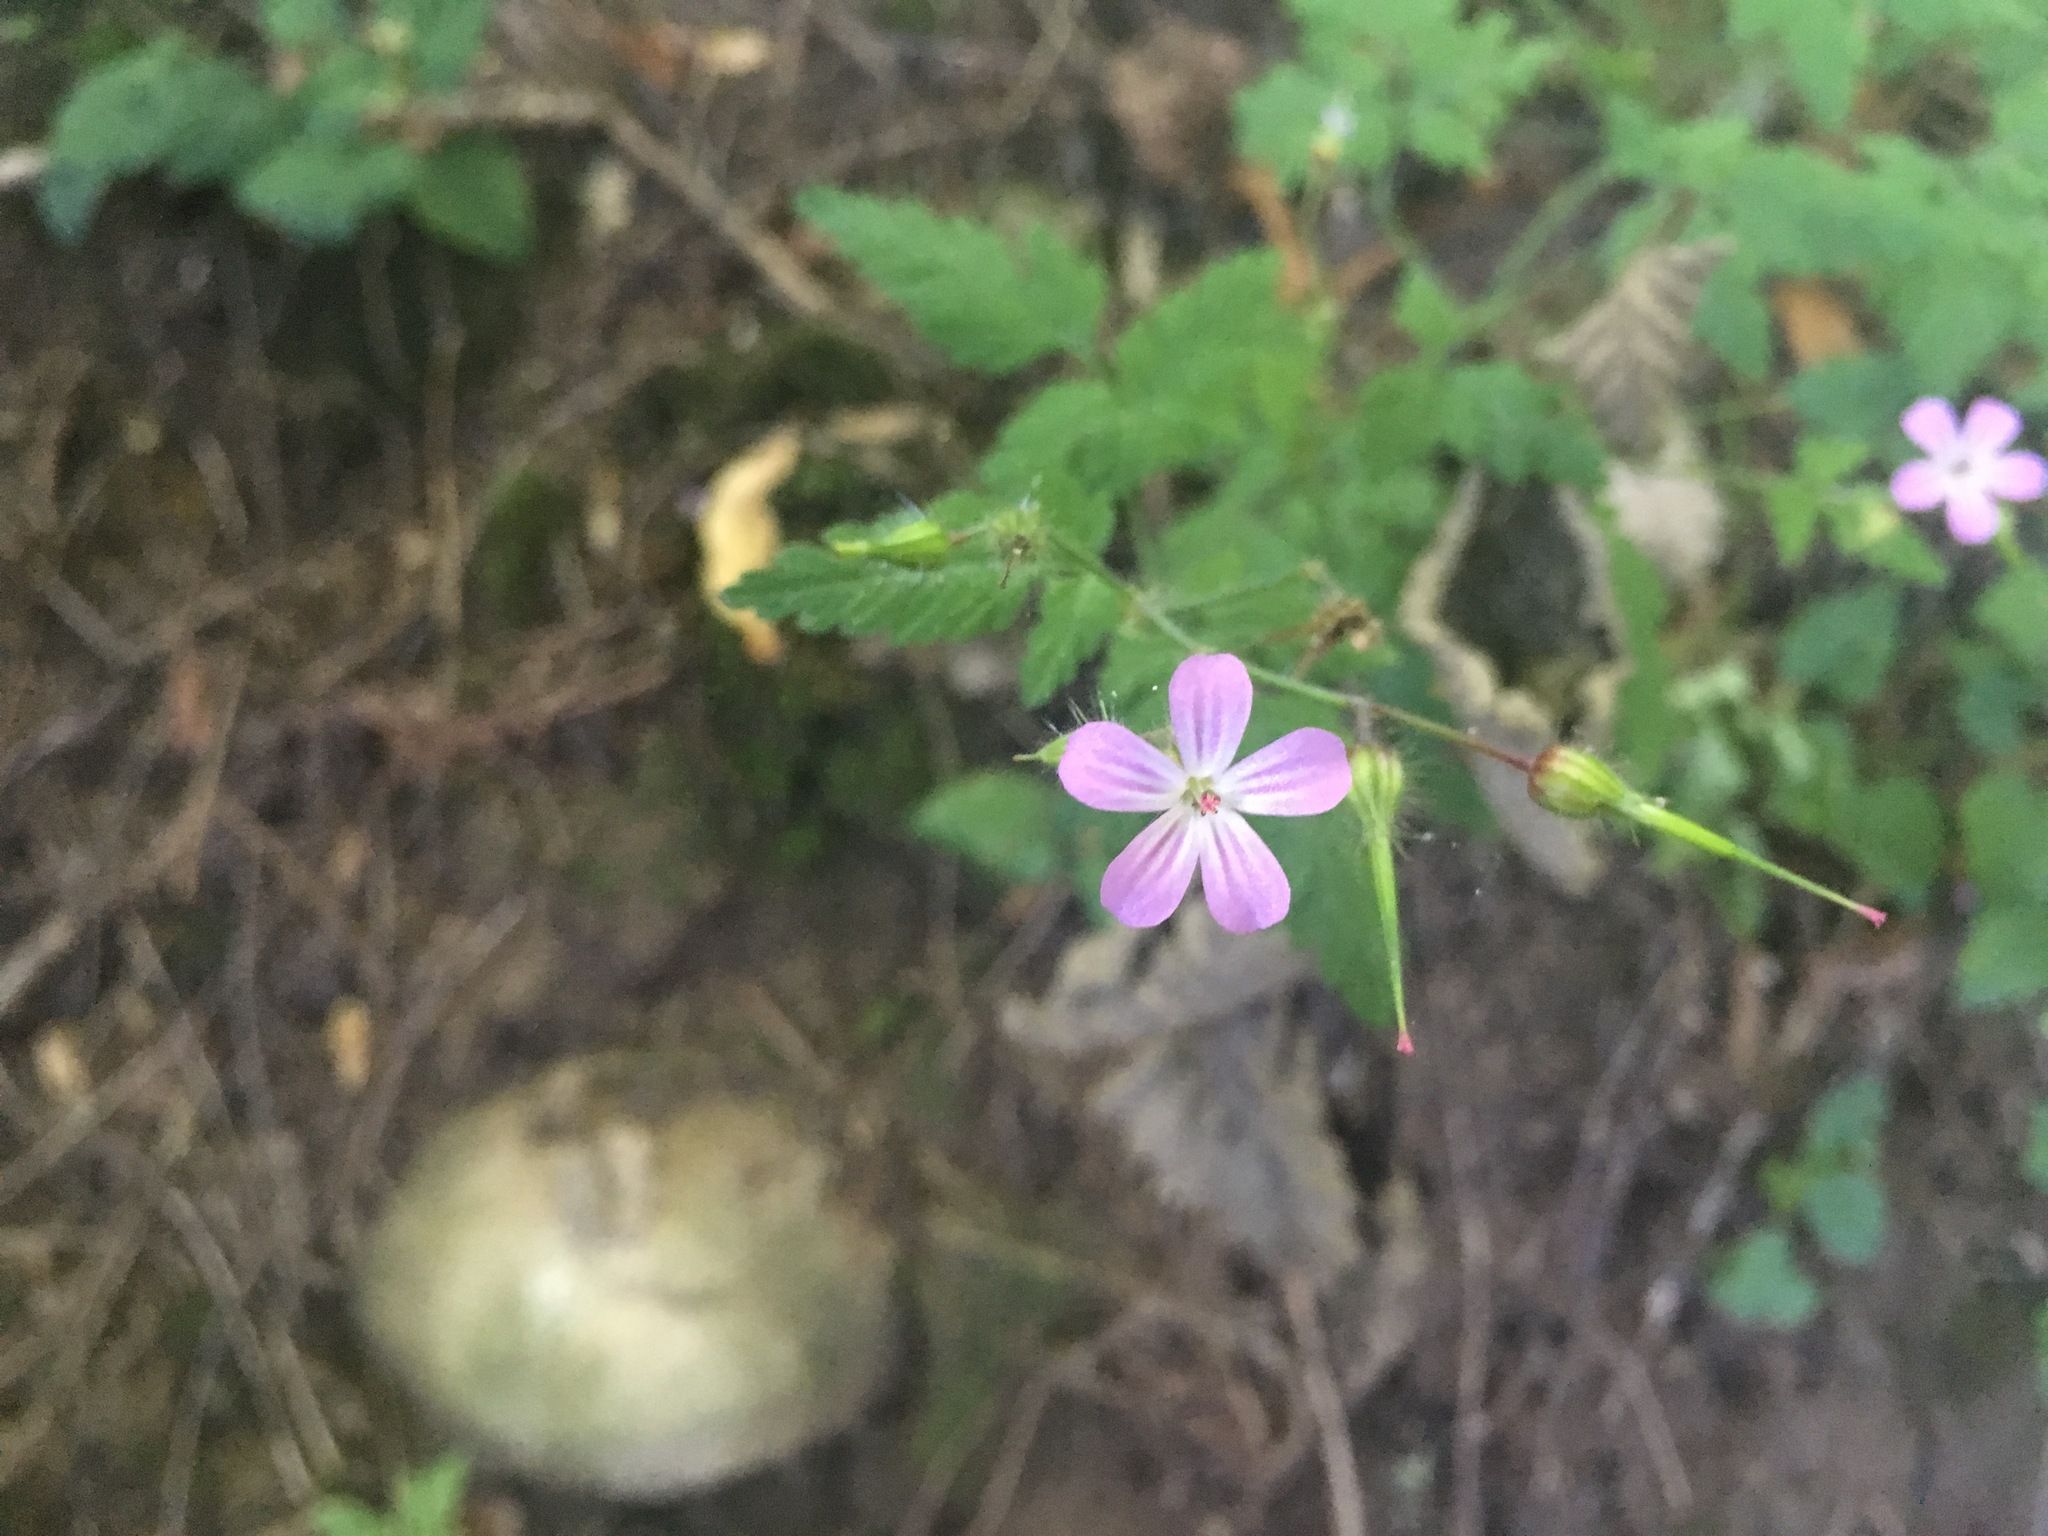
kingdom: Plantae
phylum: Tracheophyta
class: Magnoliopsida
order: Geraniales
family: Geraniaceae
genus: Geranium
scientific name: Geranium robertianum
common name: Herb-robert
